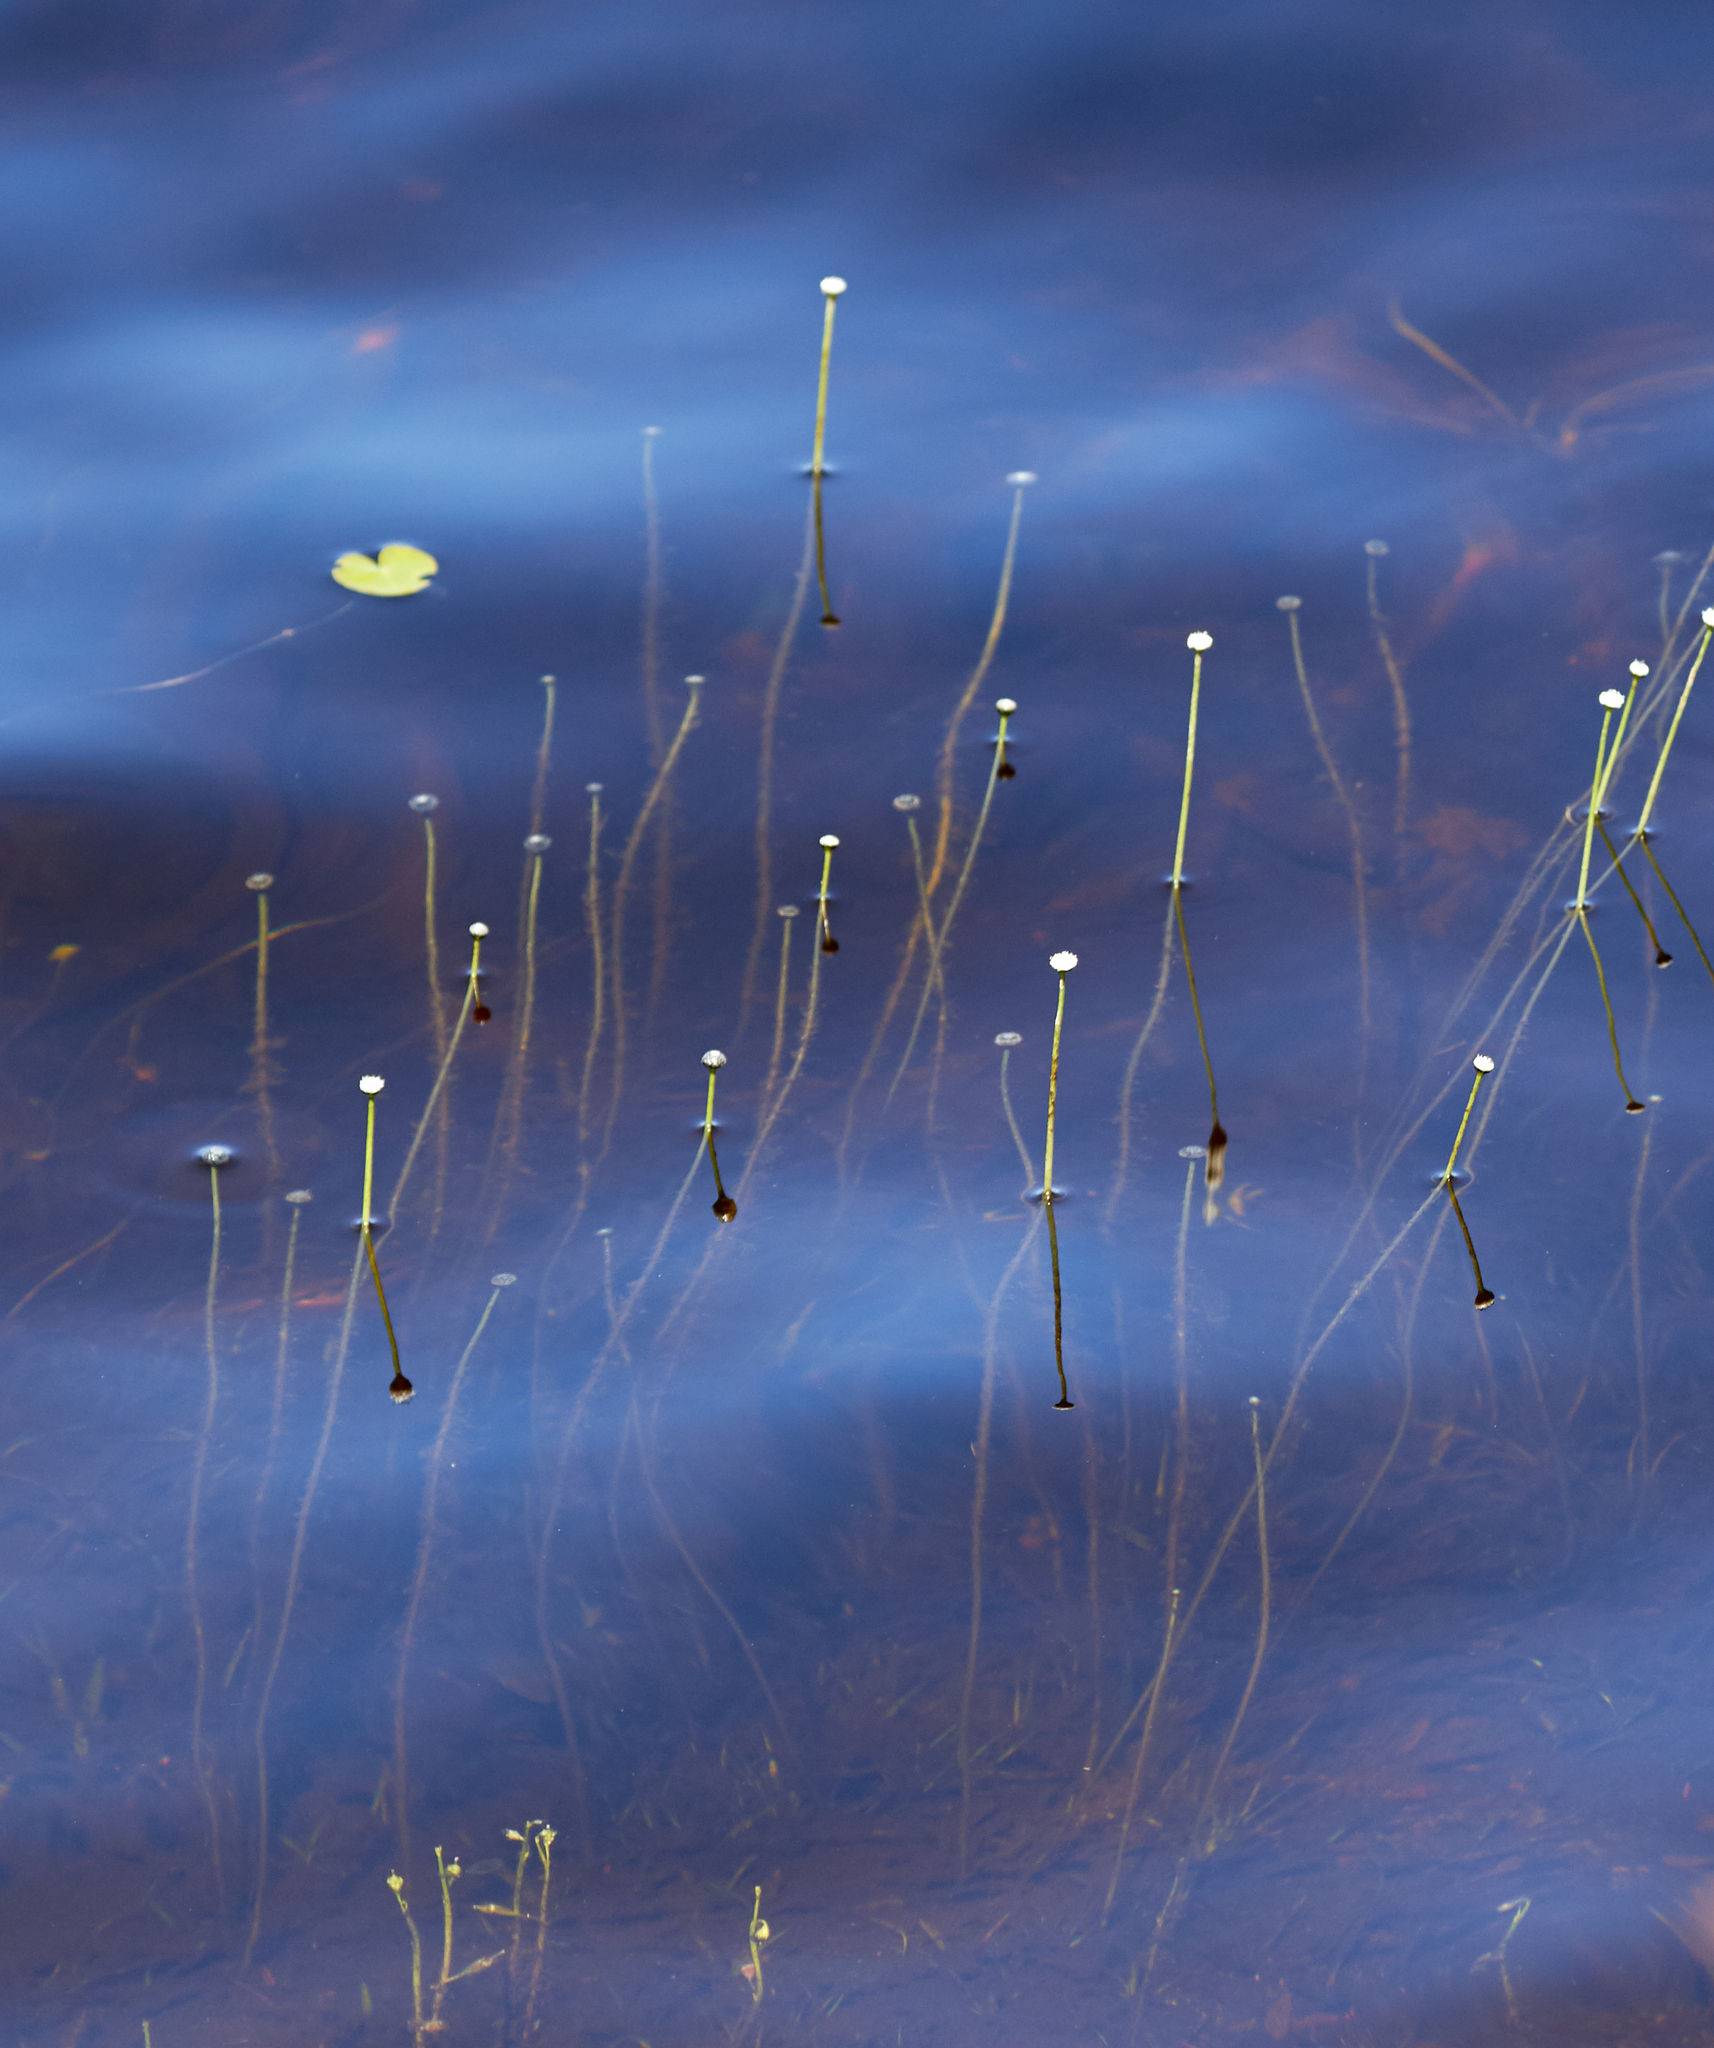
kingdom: Plantae
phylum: Tracheophyta
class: Liliopsida
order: Poales
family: Eriocaulaceae
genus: Eriocaulon
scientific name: Eriocaulon aquaticum
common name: Pipewort
